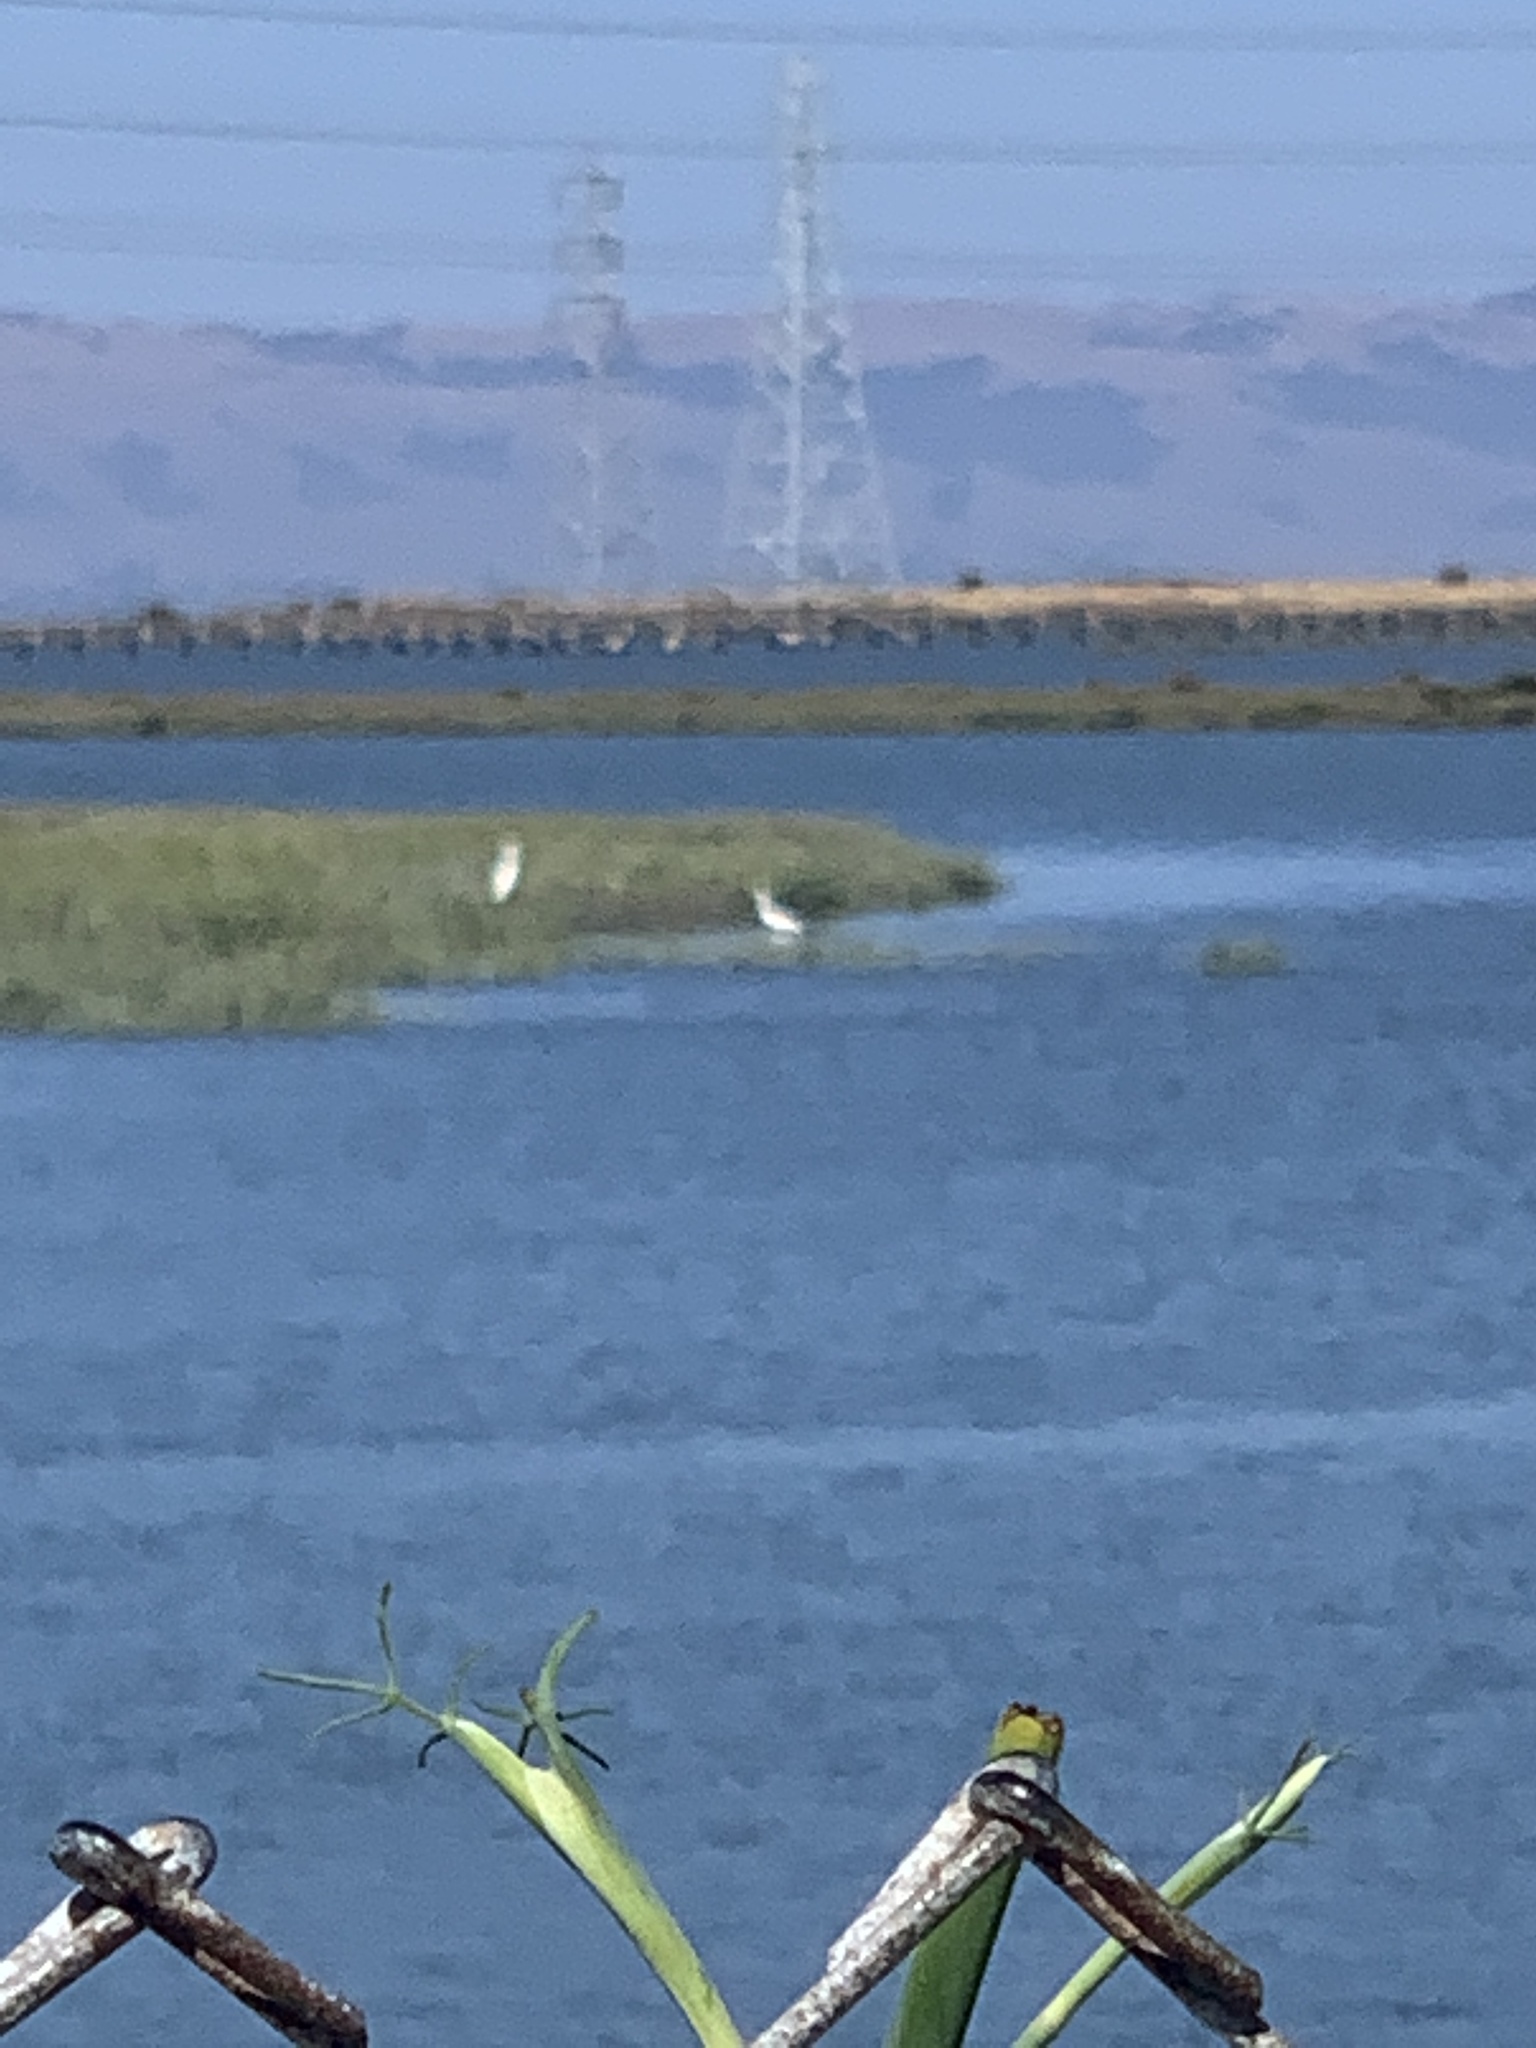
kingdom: Animalia
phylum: Chordata
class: Aves
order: Pelecaniformes
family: Ardeidae
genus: Ardea
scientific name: Ardea alba
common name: Great egret
